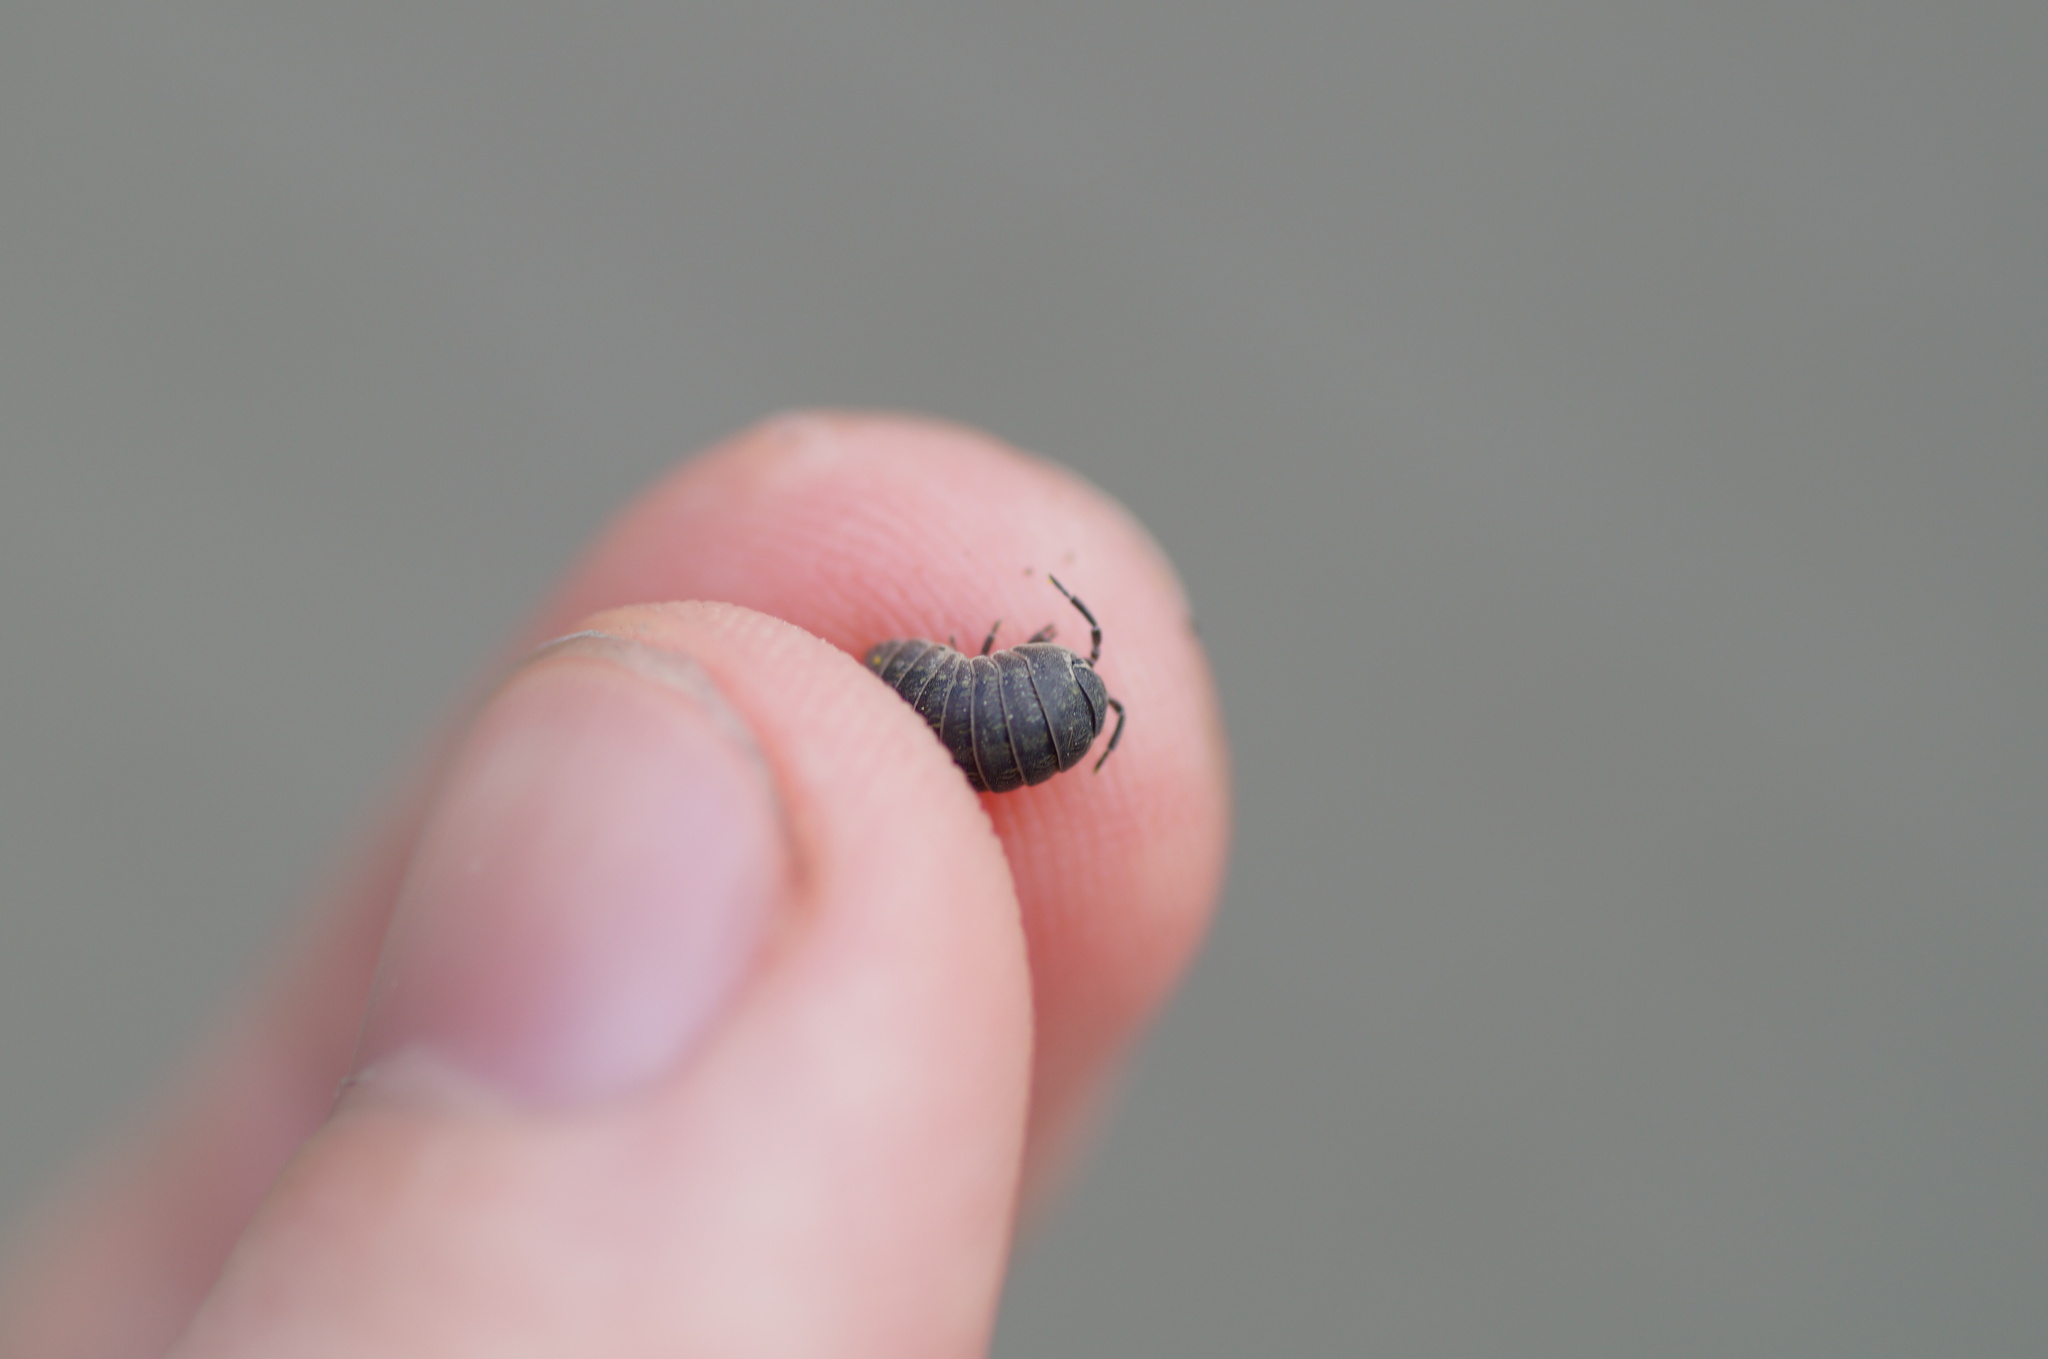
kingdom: Animalia
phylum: Arthropoda
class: Malacostraca
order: Isopoda
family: Armadillidiidae
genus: Armadillidium
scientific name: Armadillidium vulgare
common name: Common pill woodlouse
